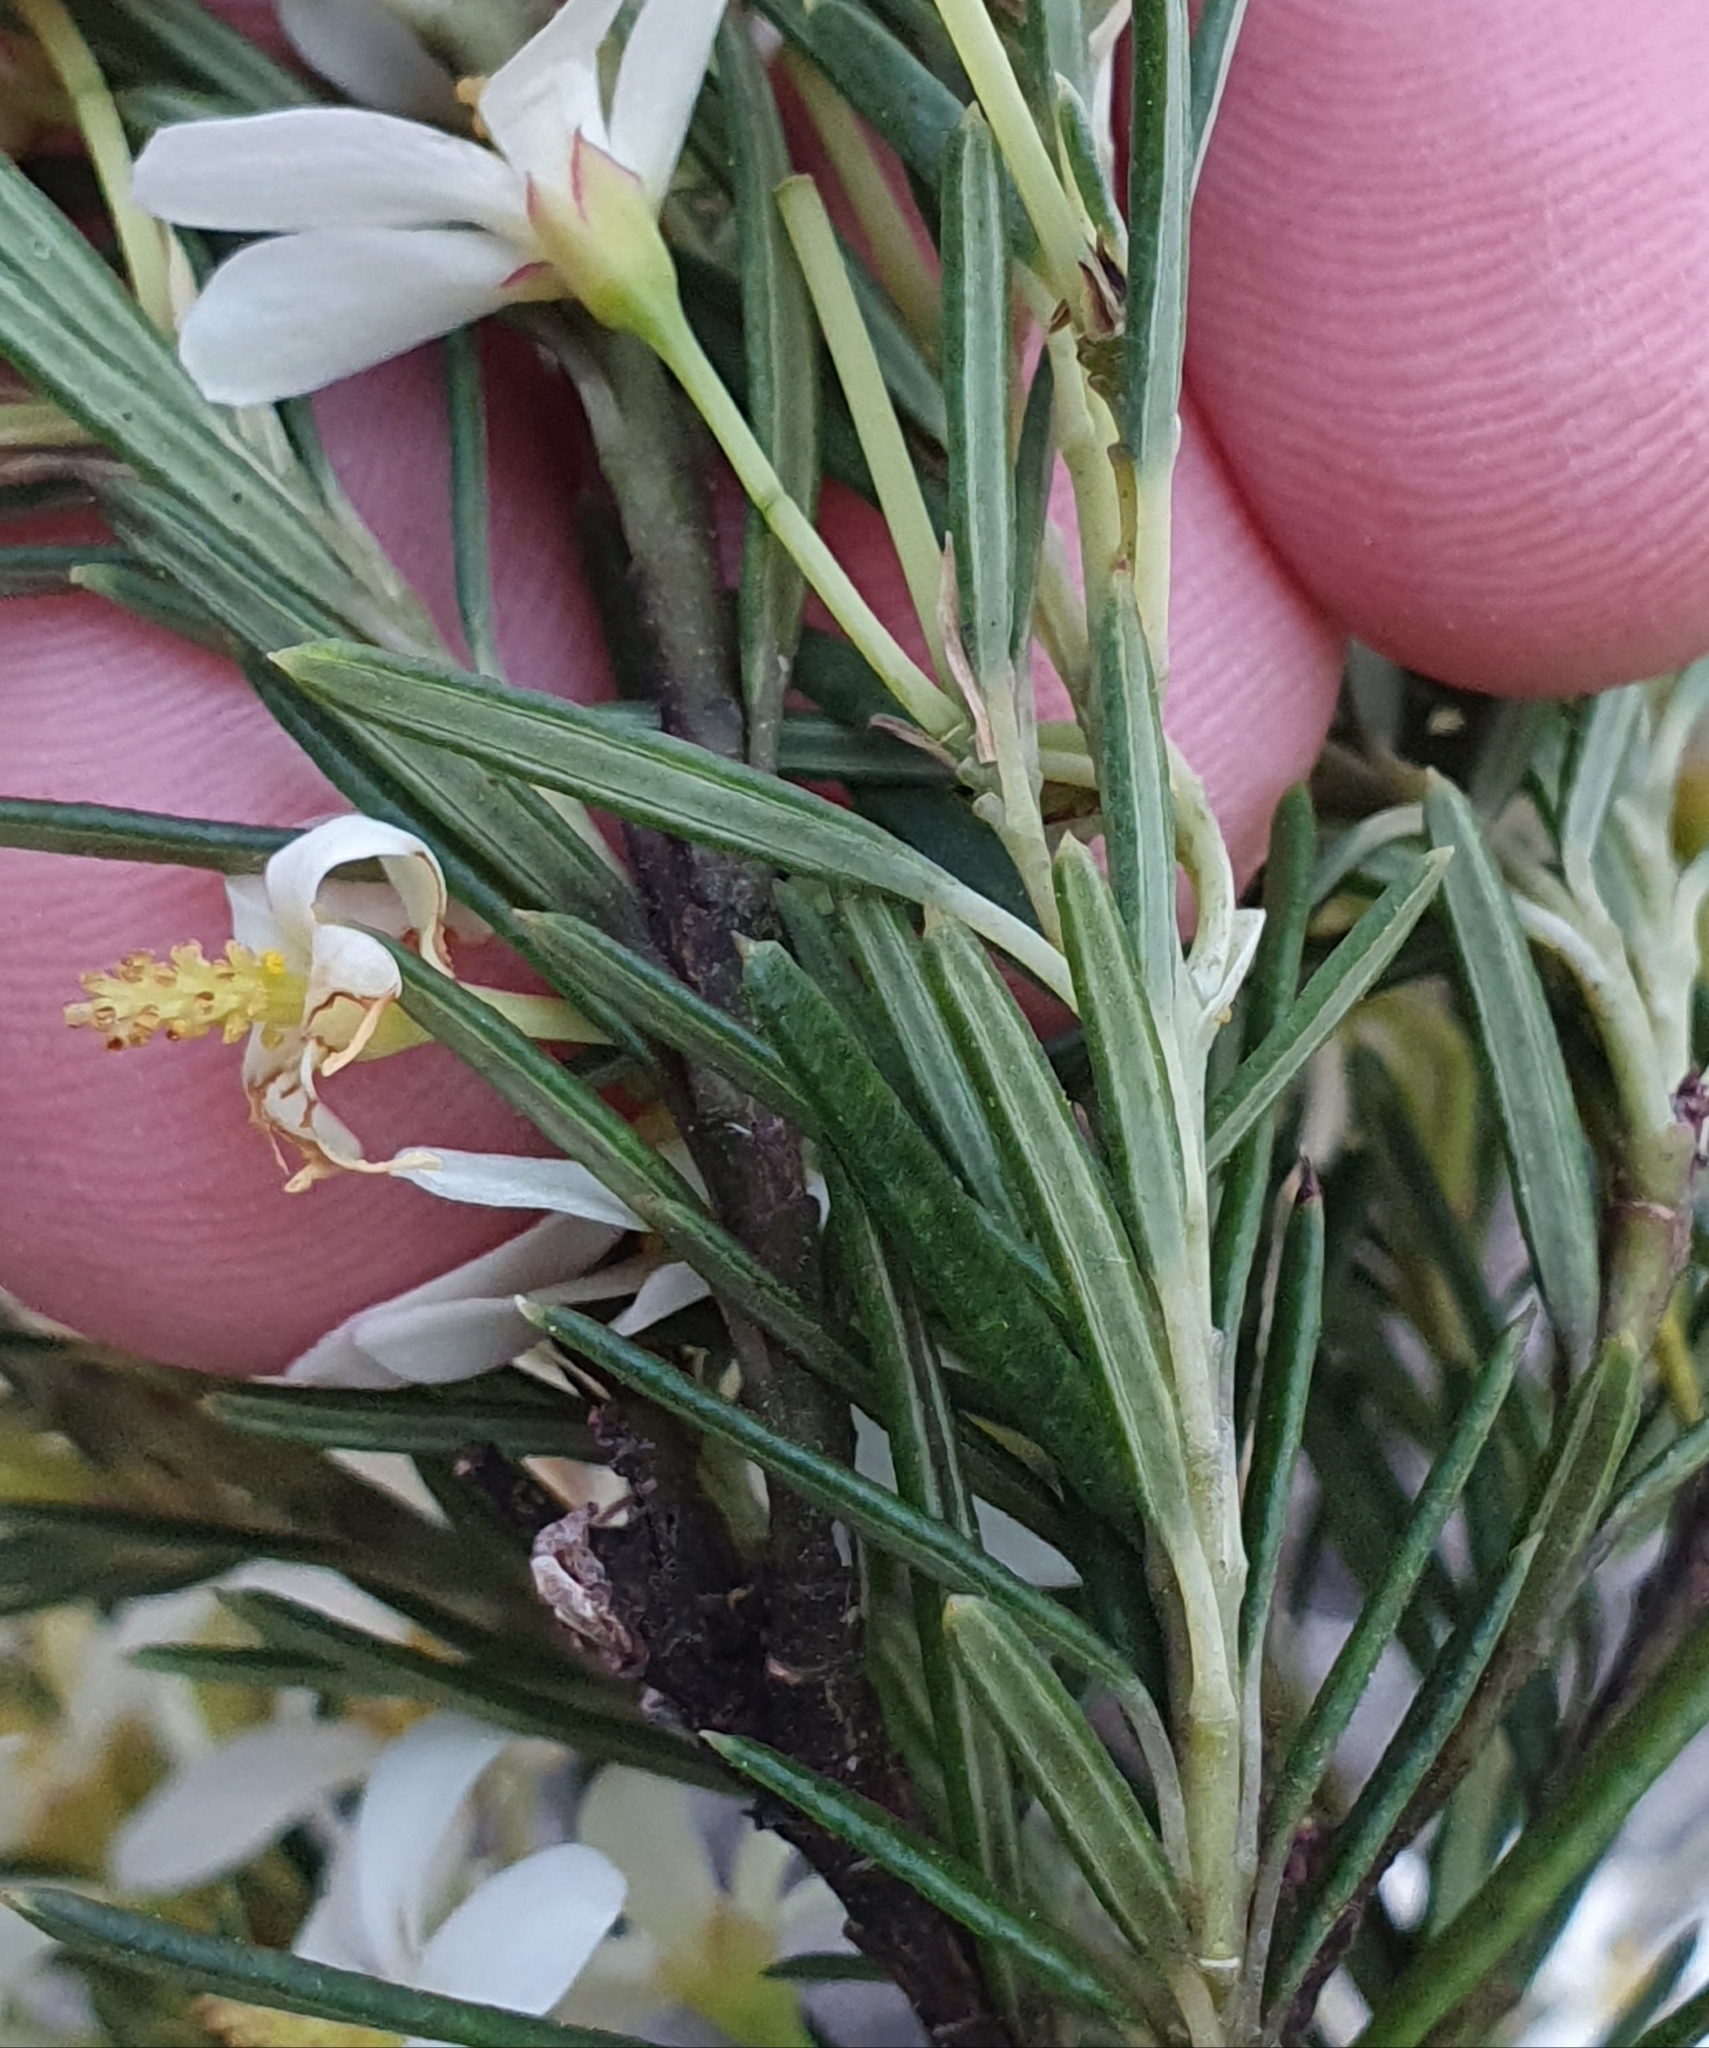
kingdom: Plantae
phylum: Tracheophyta
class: Magnoliopsida
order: Malpighiales
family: Euphorbiaceae
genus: Ricinocarpos
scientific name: Ricinocarpos pinifolius
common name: Weddingbush
